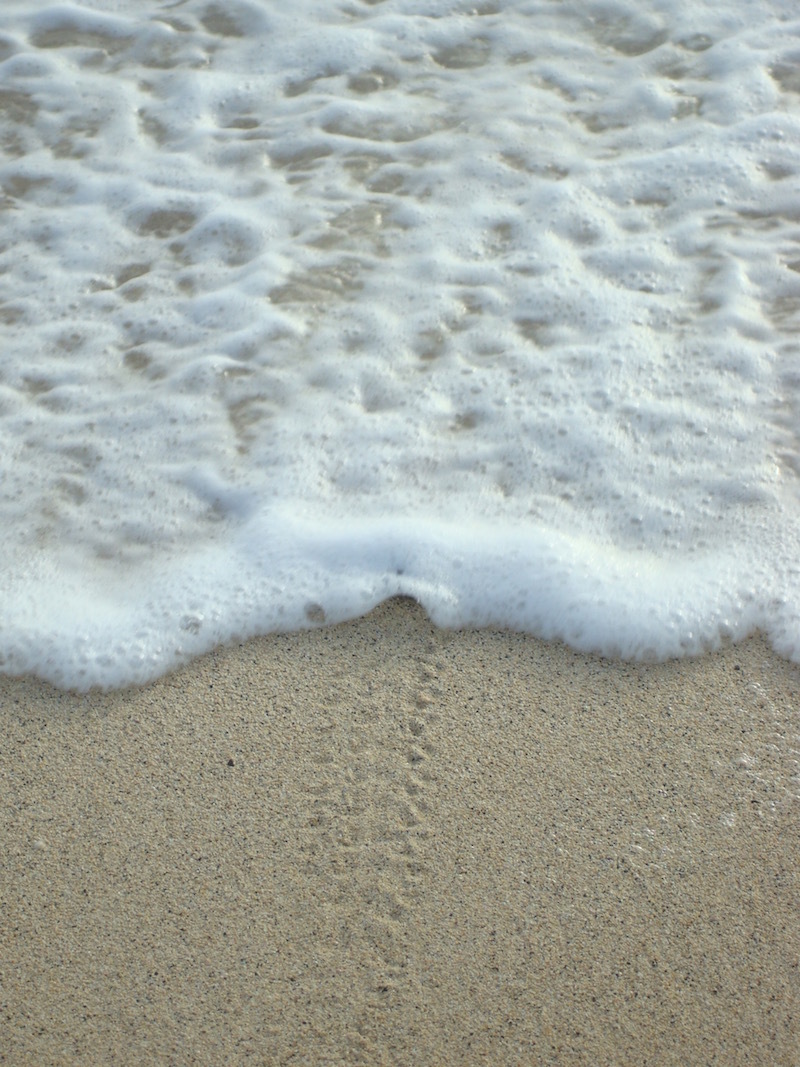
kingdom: Animalia
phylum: Chordata
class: Testudines
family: Cheloniidae
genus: Caretta
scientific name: Caretta caretta
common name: Loggerhead sea turtle
